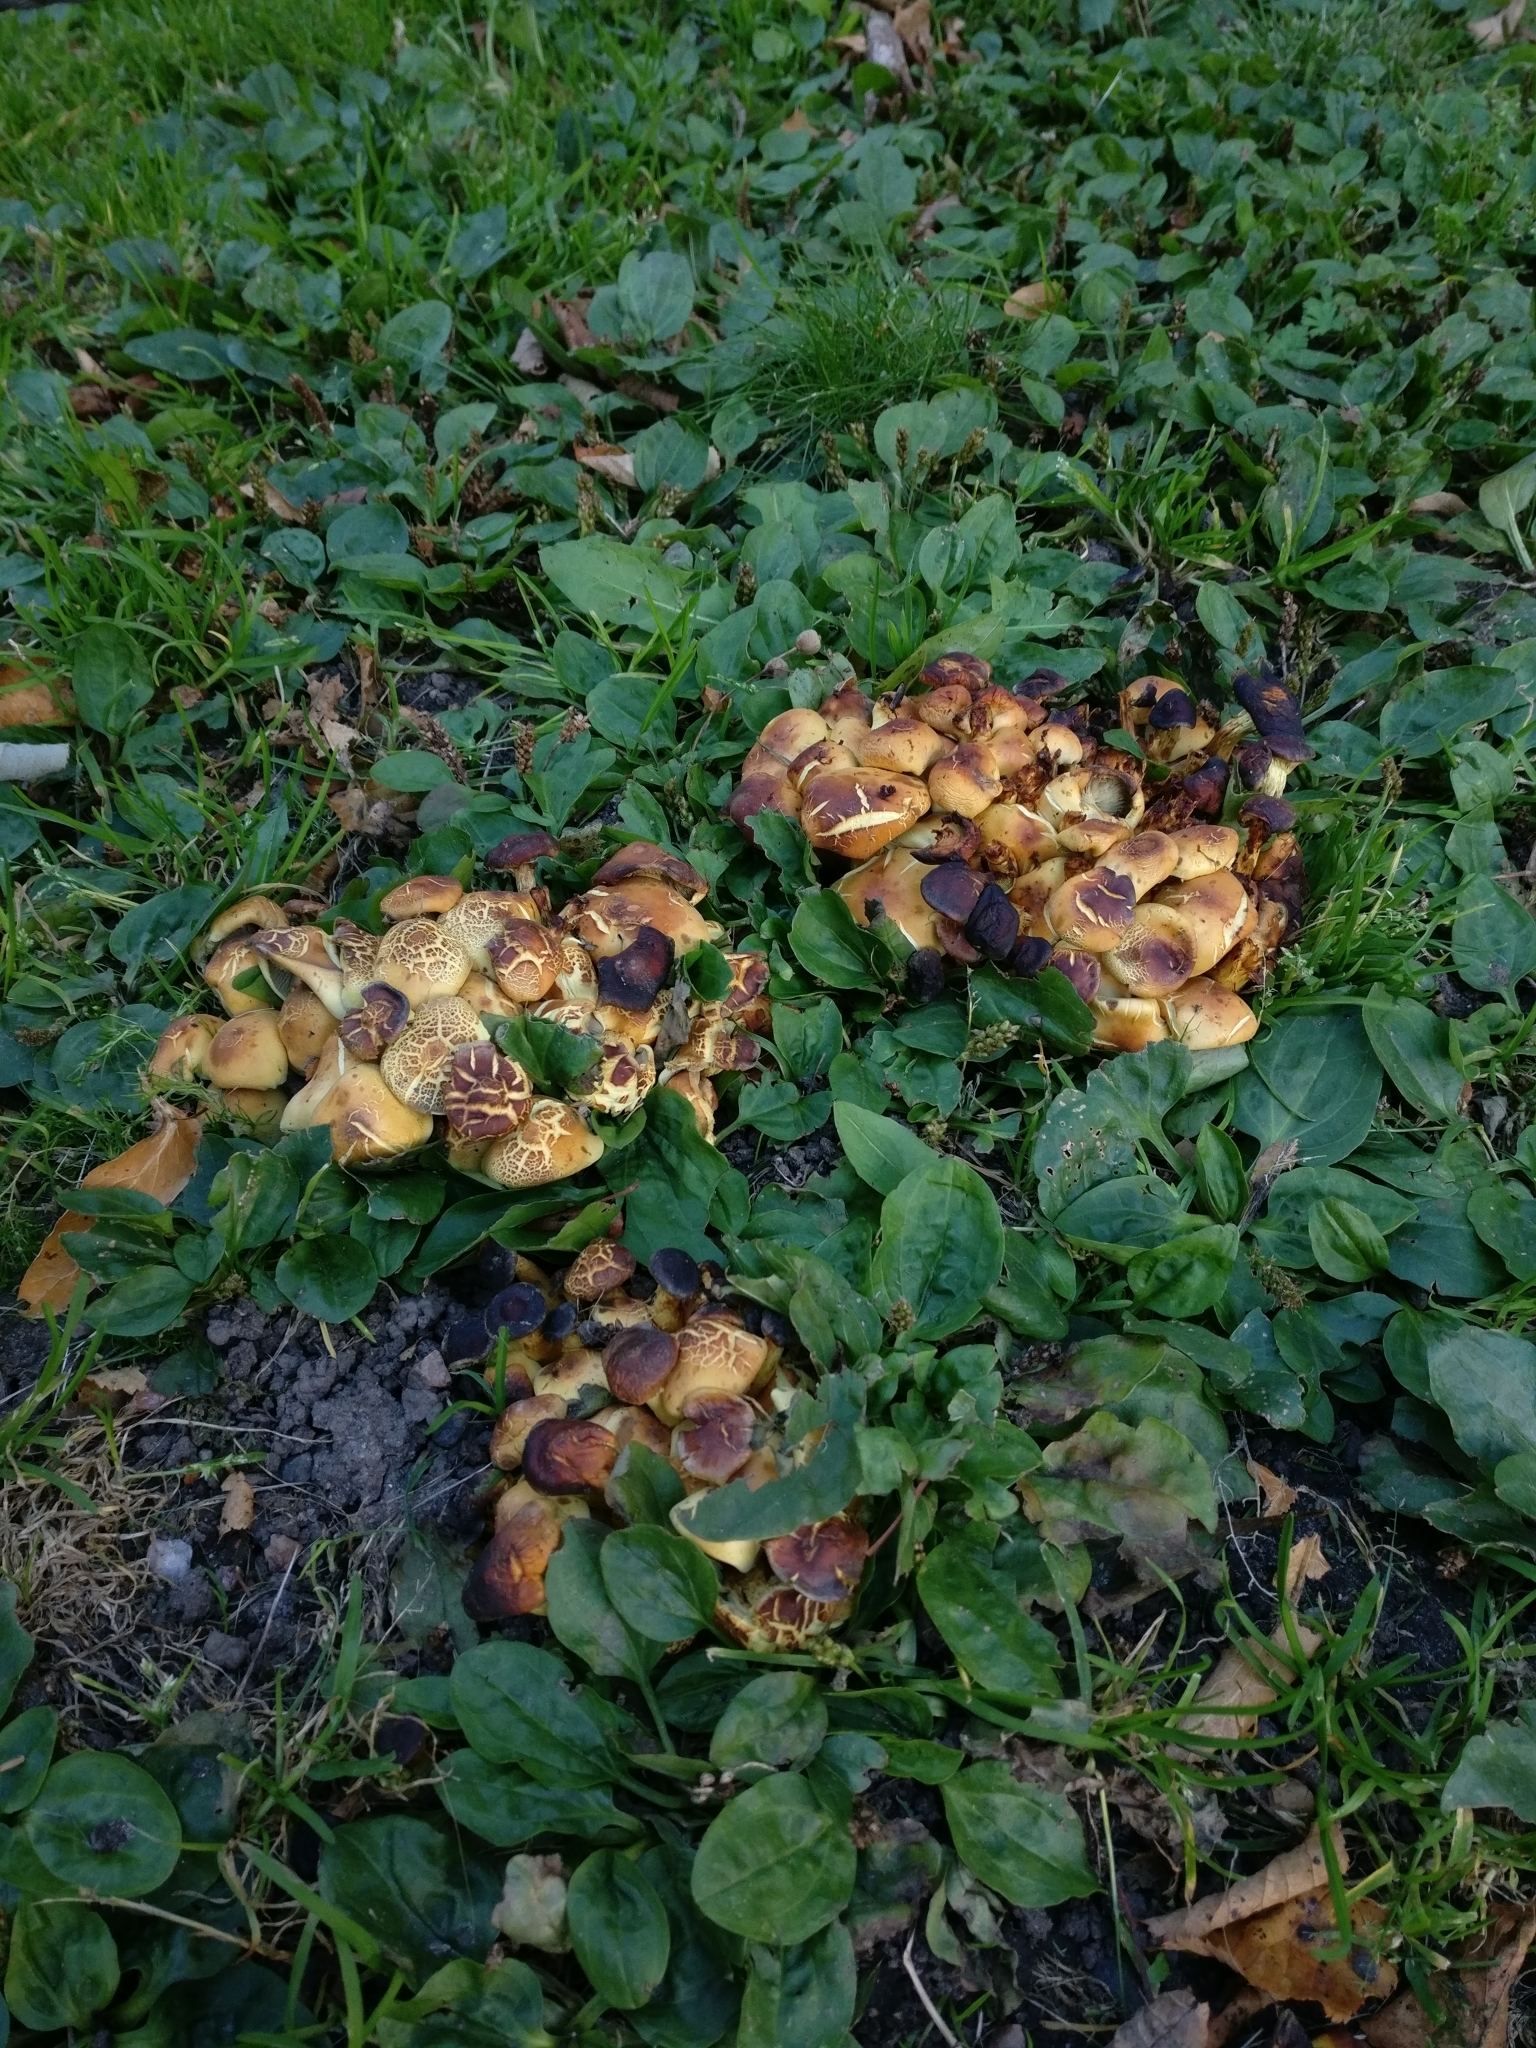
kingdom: Fungi
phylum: Basidiomycota
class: Agaricomycetes
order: Agaricales
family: Strophariaceae
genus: Hypholoma
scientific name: Hypholoma fasciculare
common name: Sulphur tuft
